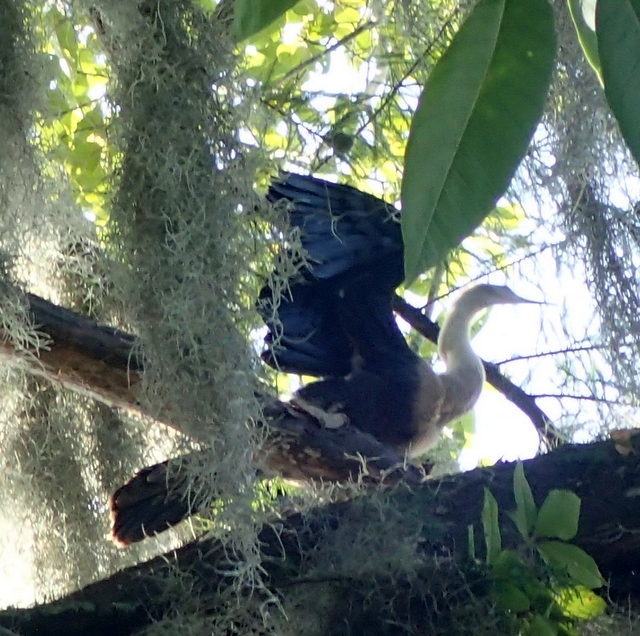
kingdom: Animalia
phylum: Chordata
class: Aves
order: Suliformes
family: Anhingidae
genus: Anhinga
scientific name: Anhinga anhinga
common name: Anhinga
